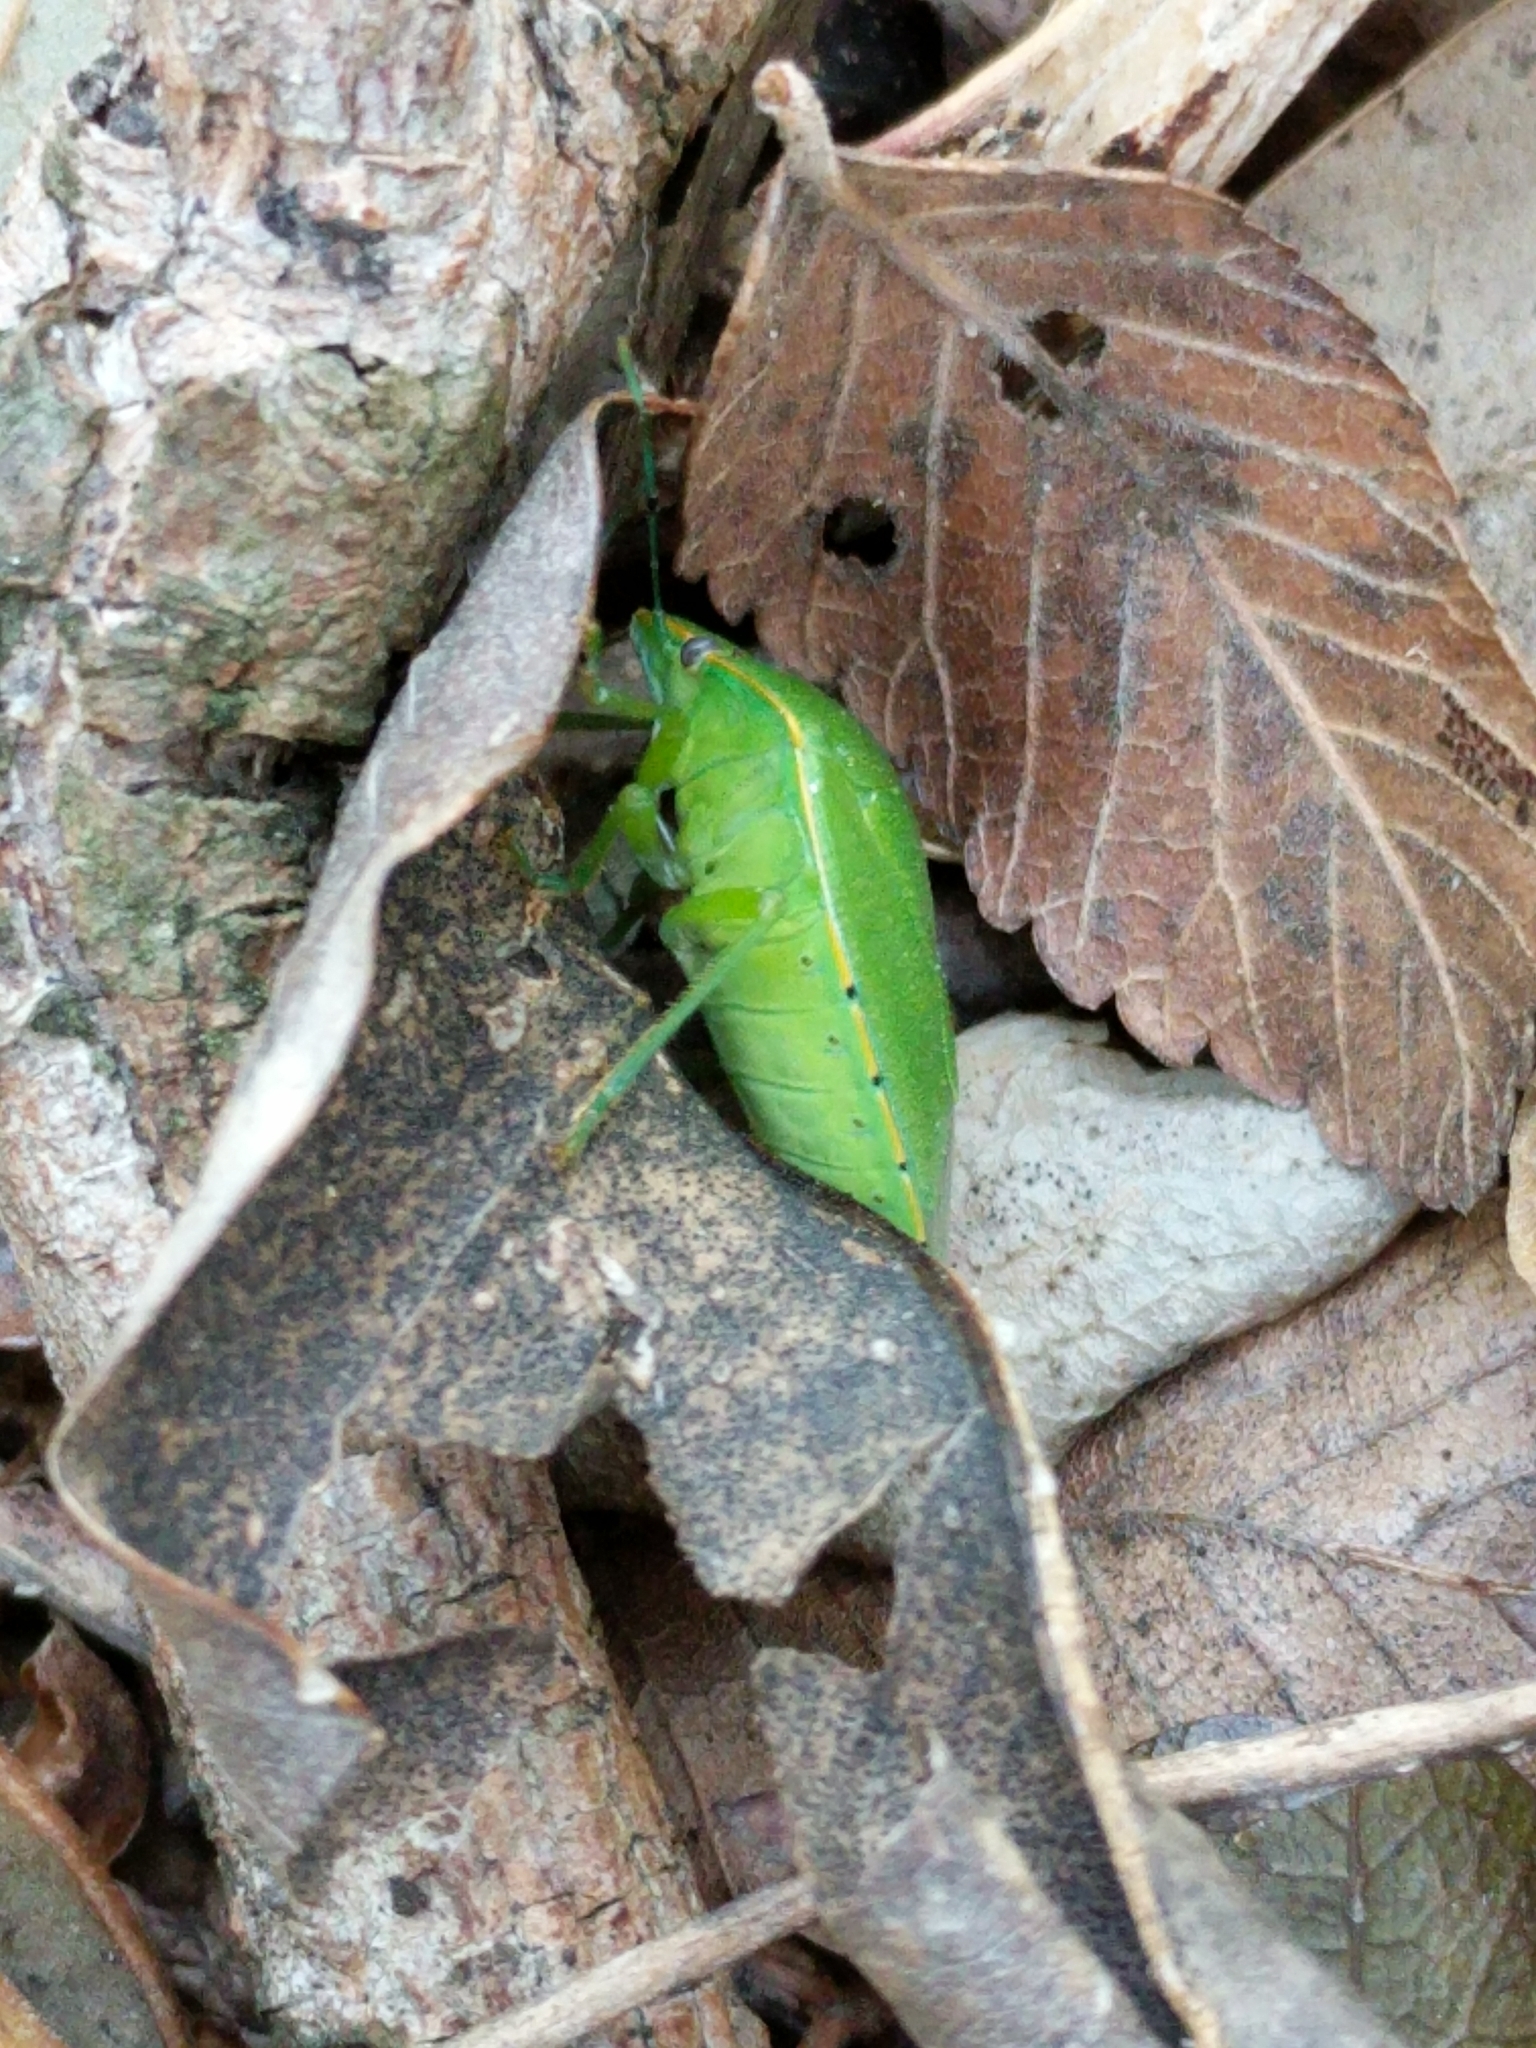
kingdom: Animalia
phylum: Arthropoda
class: Insecta
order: Hemiptera
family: Pentatomidae
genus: Chinavia
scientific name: Chinavia hilaris
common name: Green stink bug
